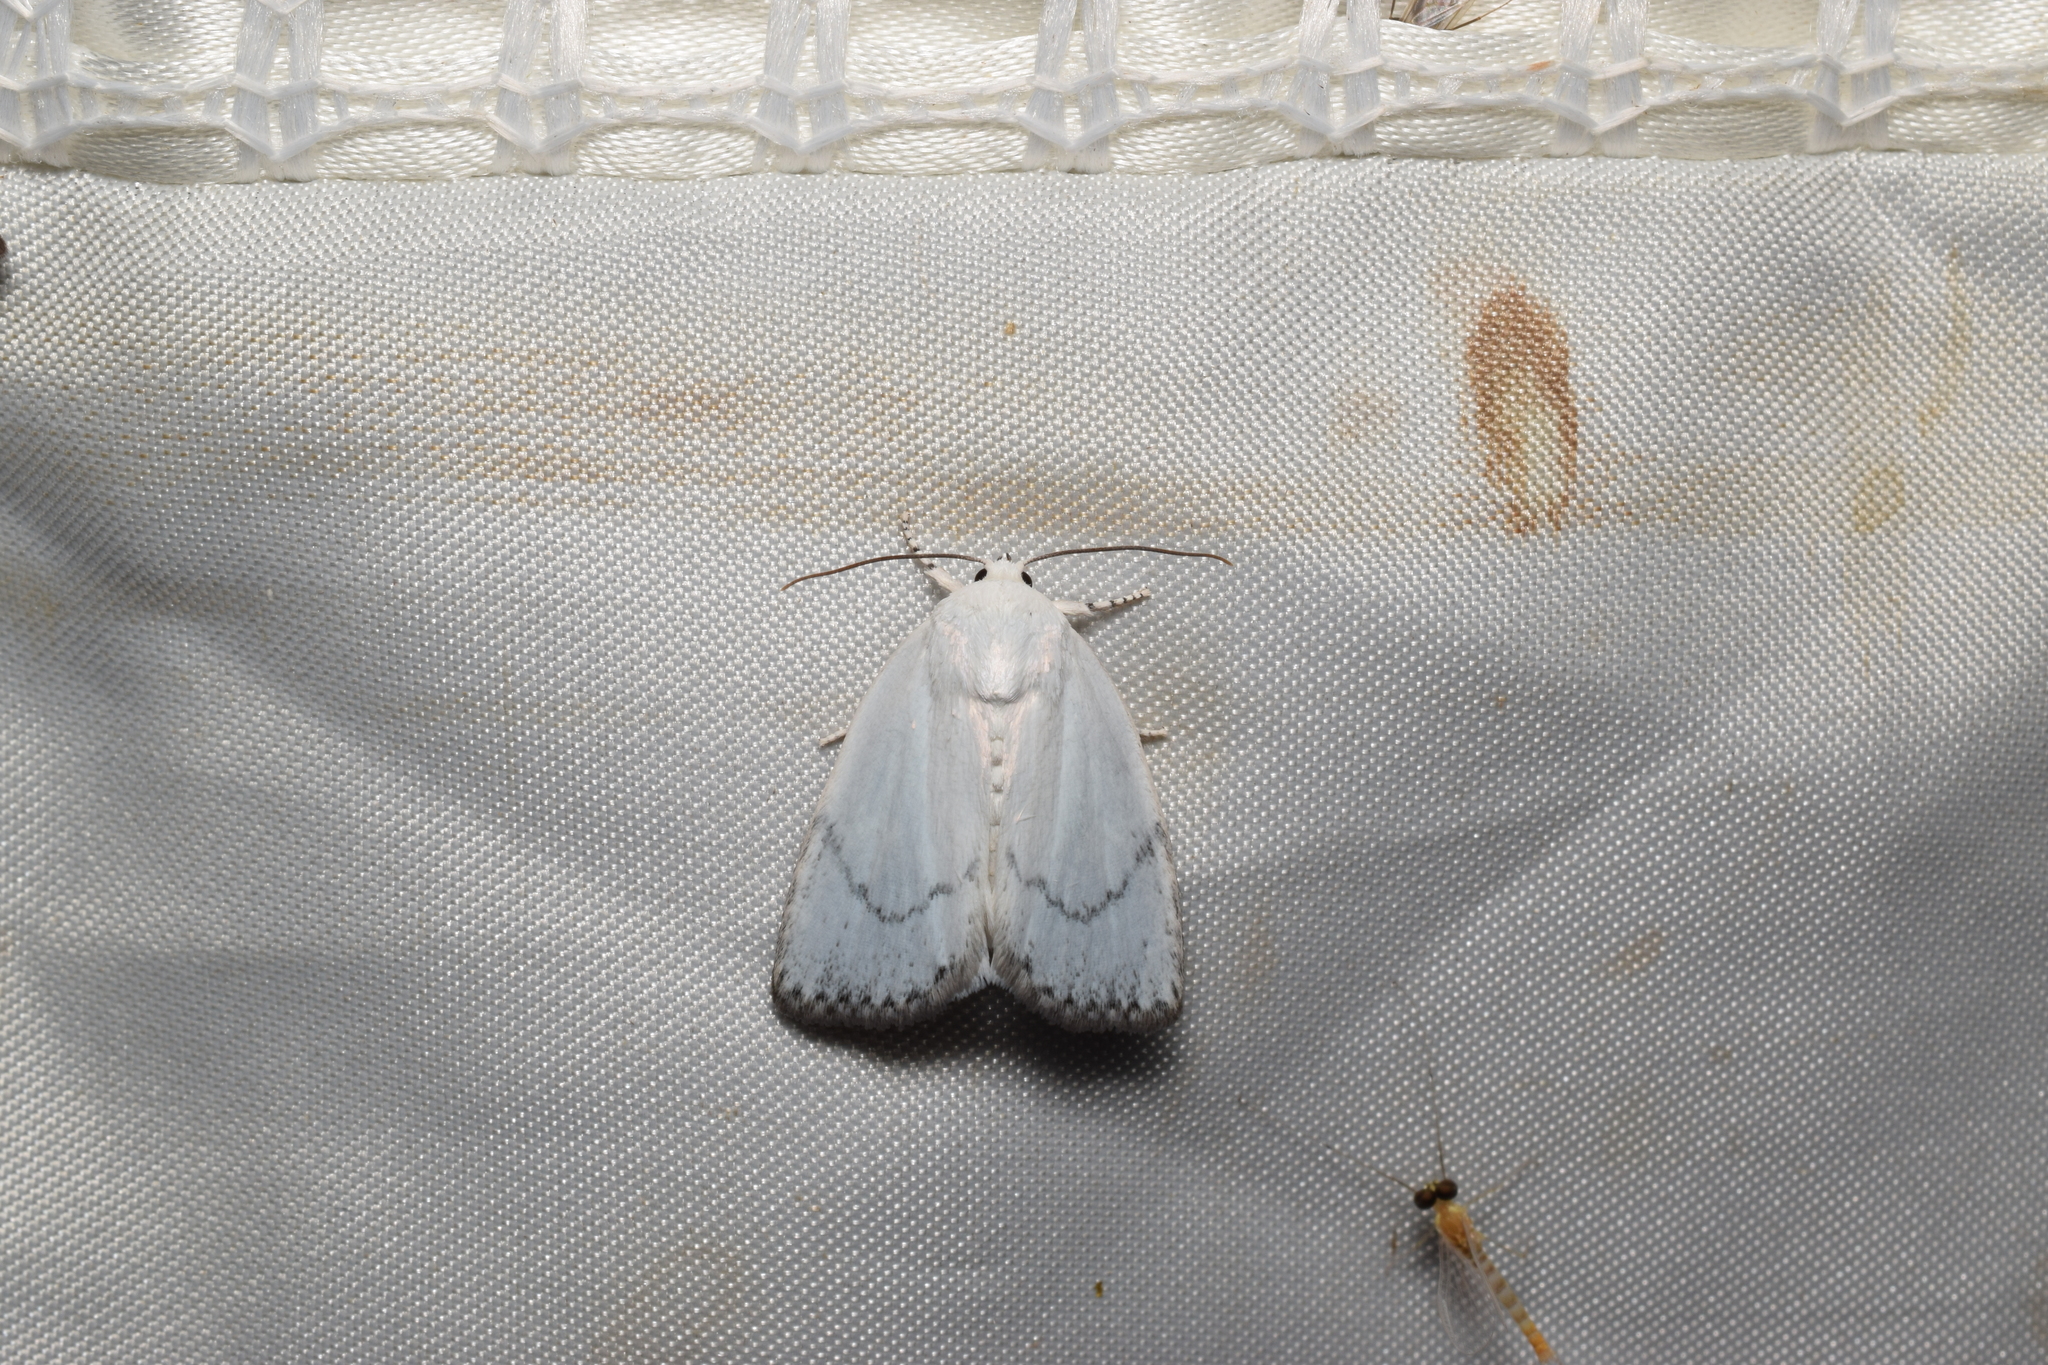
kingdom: Animalia
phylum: Arthropoda
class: Insecta
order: Lepidoptera
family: Noctuidae
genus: Chasminodes
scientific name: Chasminodes nigrilinea
